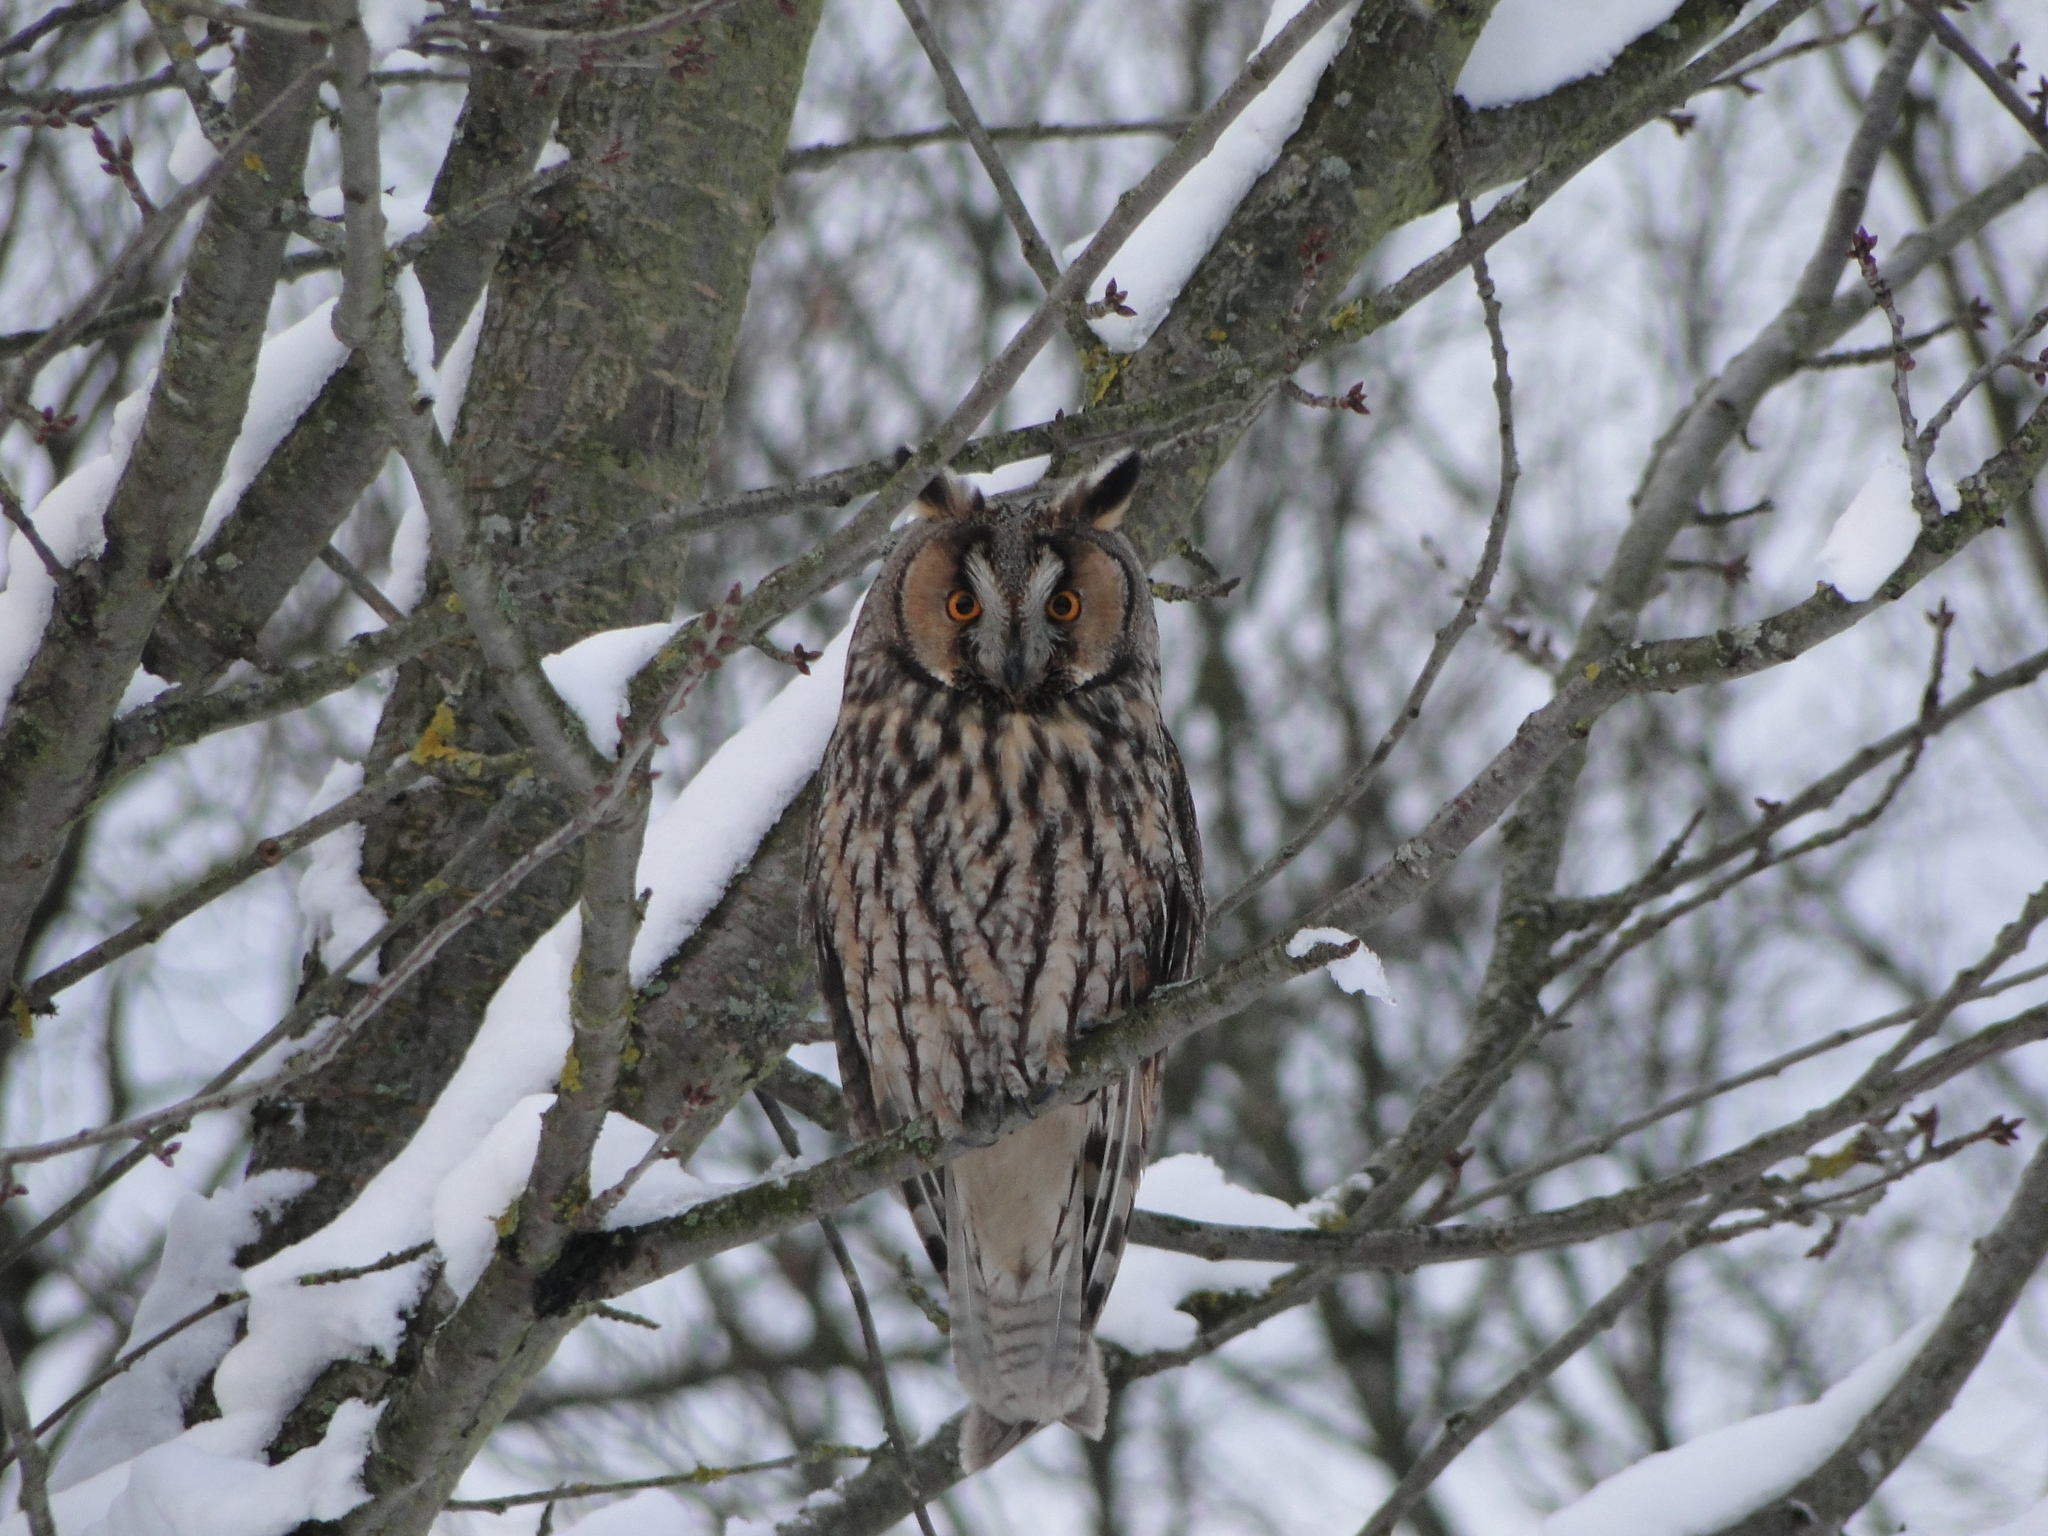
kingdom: Animalia
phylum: Chordata
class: Aves
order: Strigiformes
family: Strigidae
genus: Asio
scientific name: Asio otus
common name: Long-eared owl
